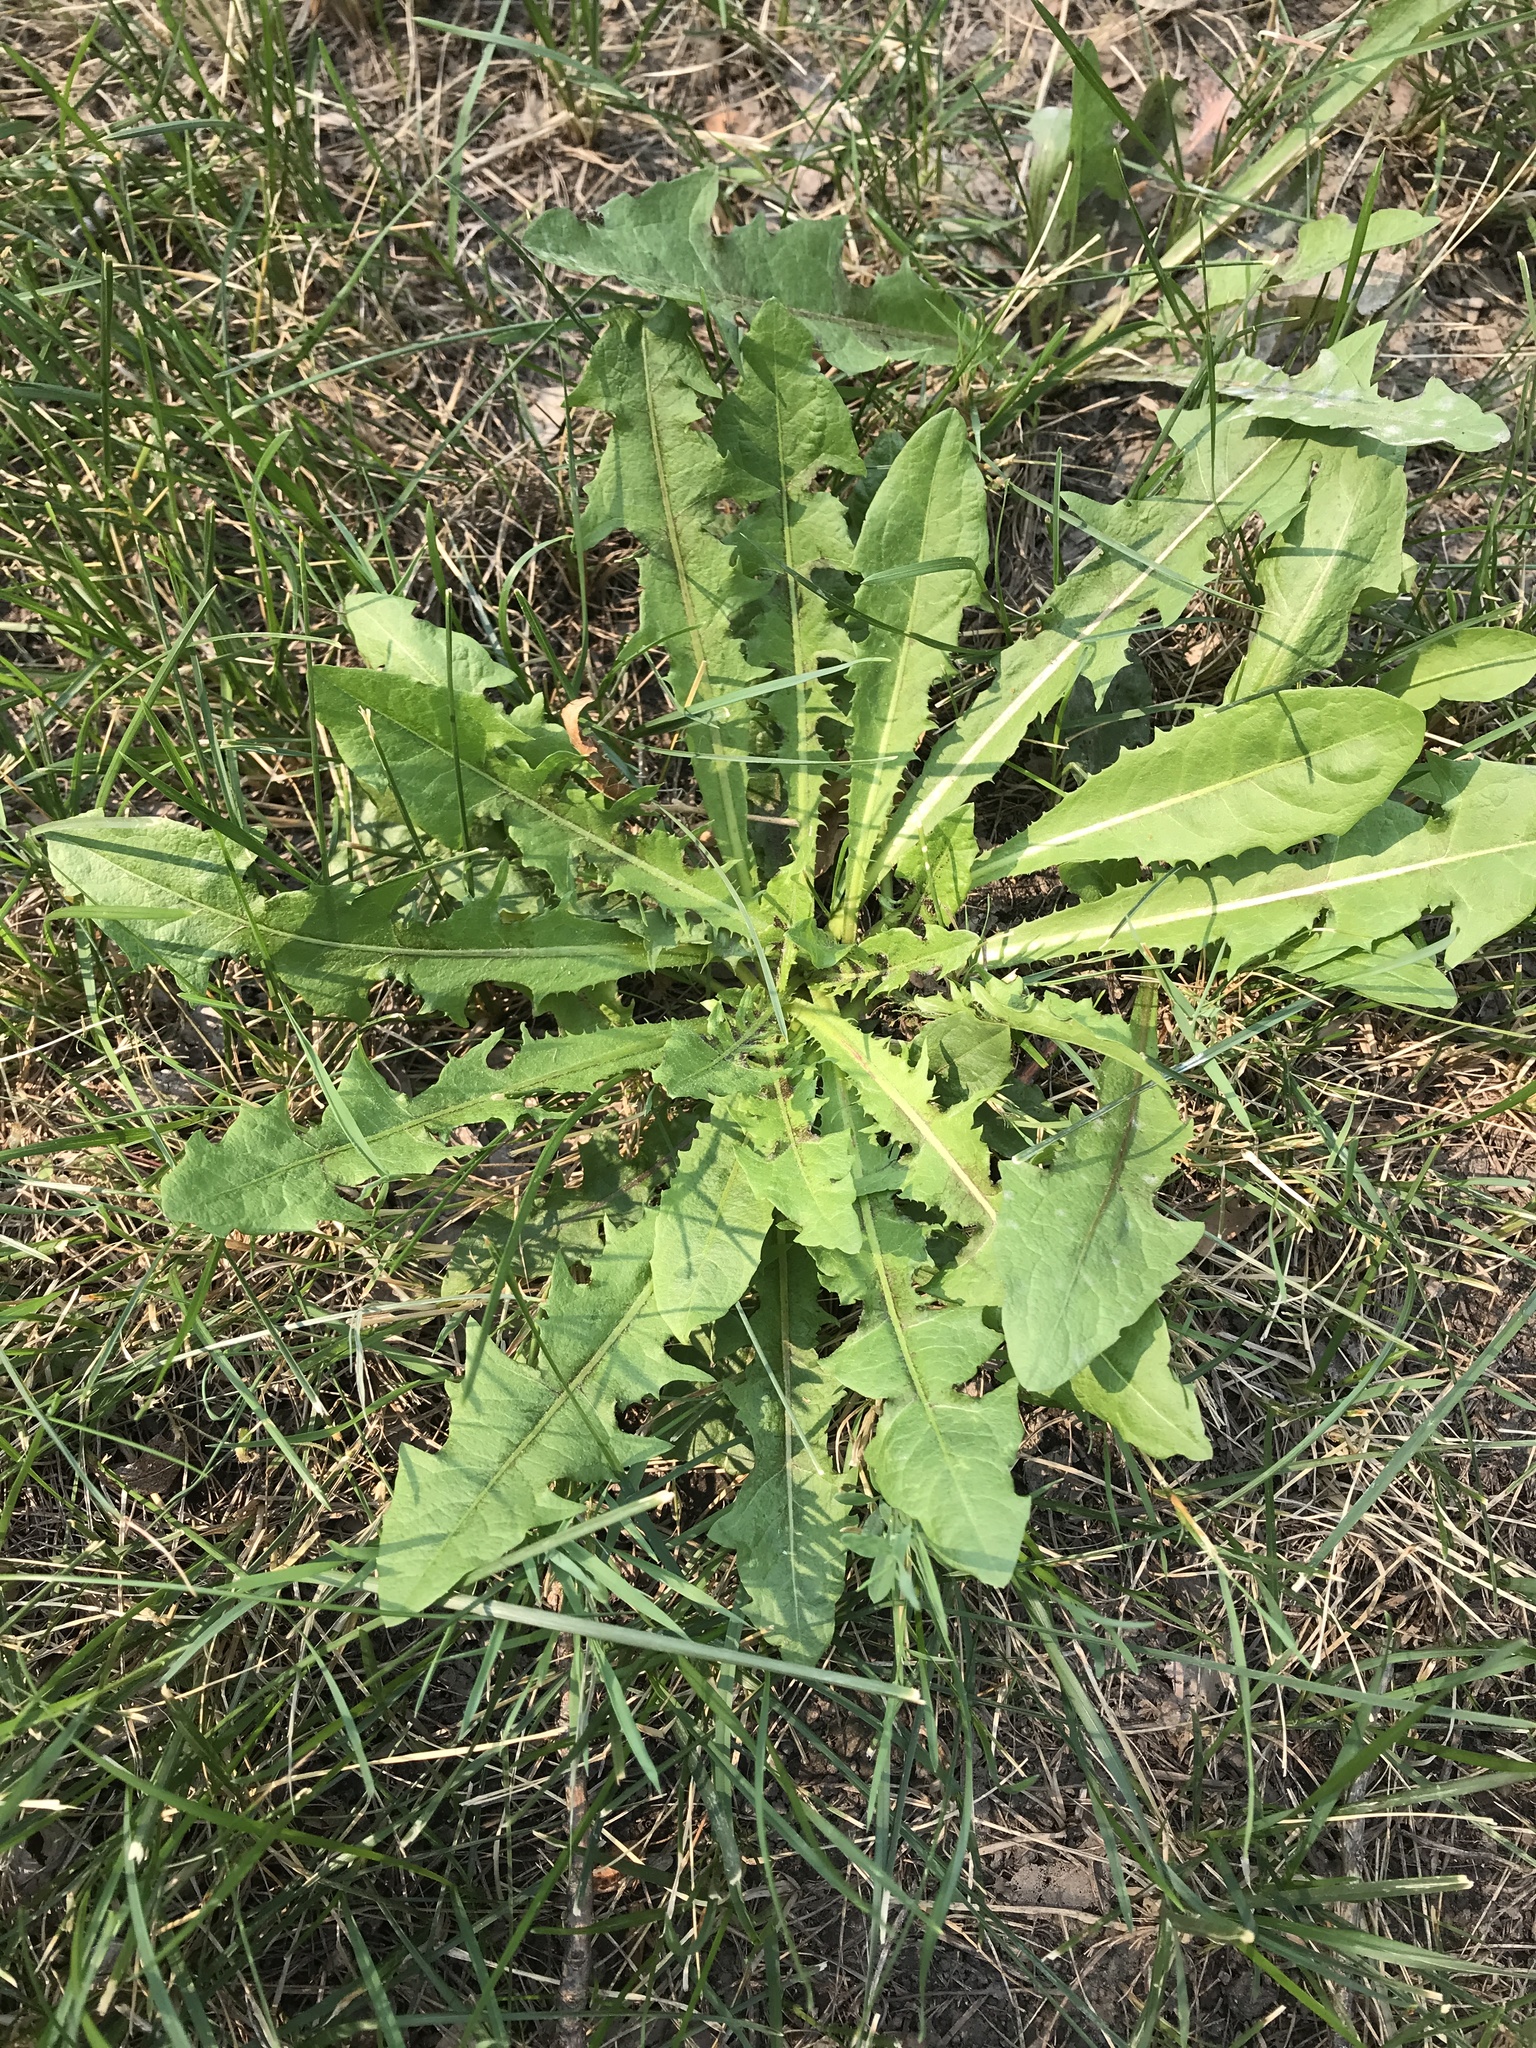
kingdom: Plantae
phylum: Tracheophyta
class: Magnoliopsida
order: Asterales
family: Asteraceae
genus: Taraxacum
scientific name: Taraxacum officinale
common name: Common dandelion
